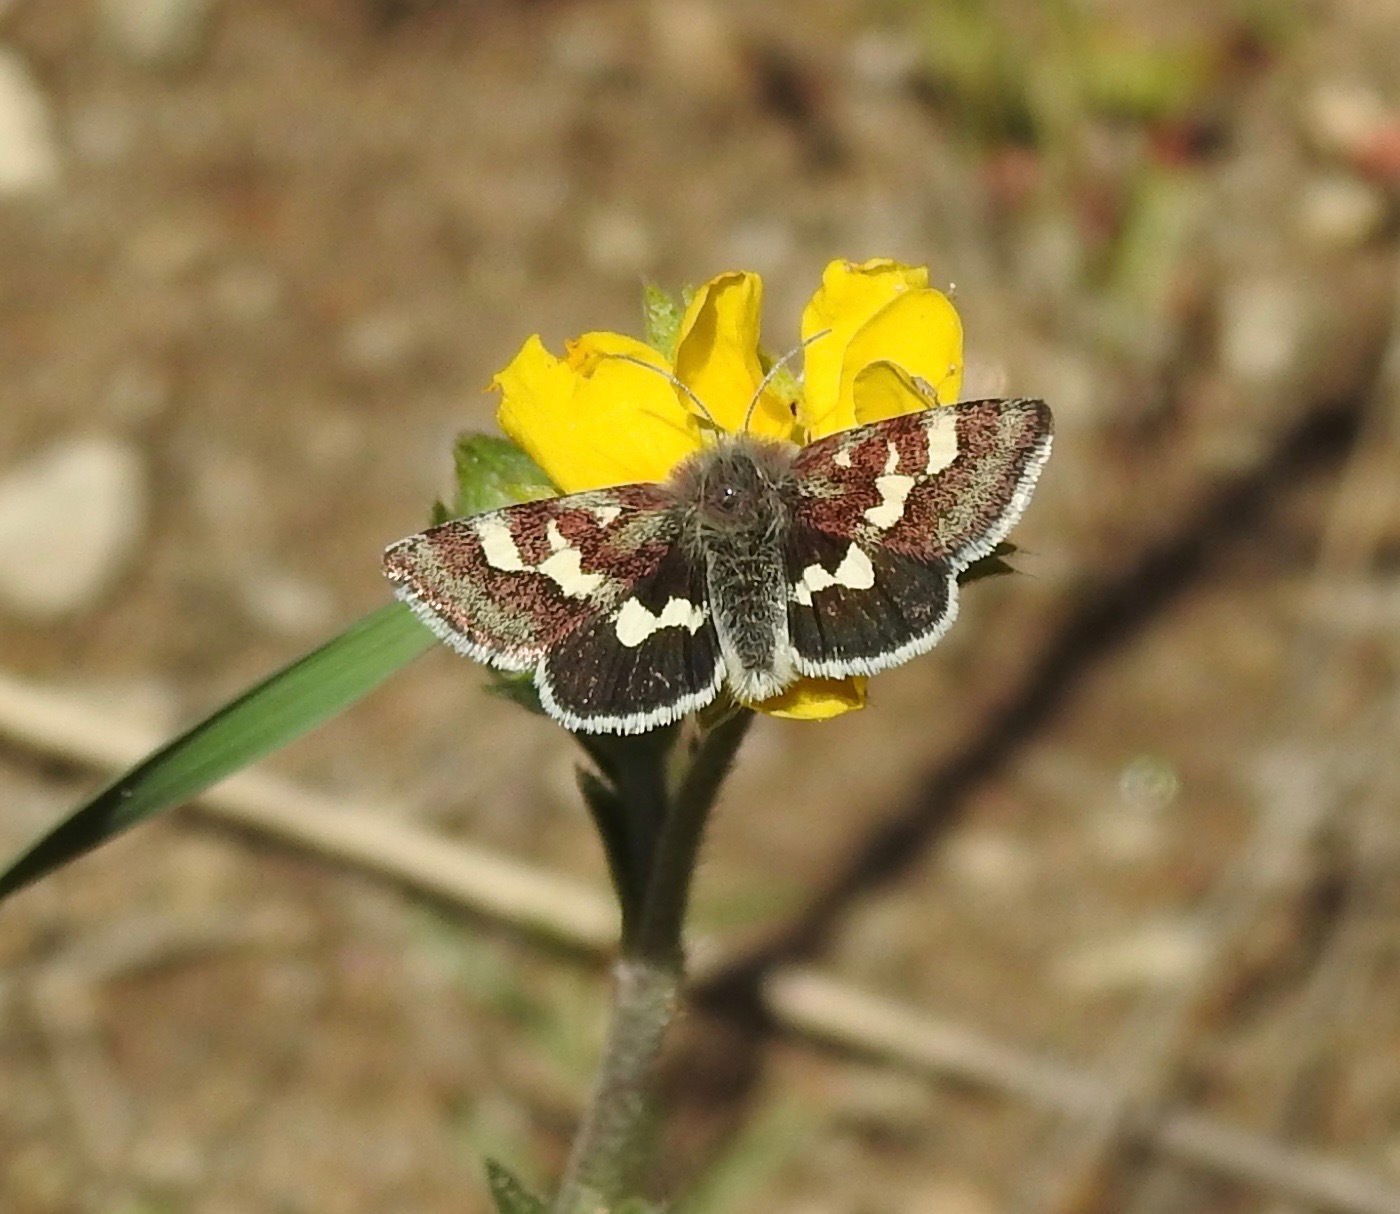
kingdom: Animalia
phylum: Arthropoda
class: Insecta
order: Lepidoptera
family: Noctuidae
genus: Eutricopis
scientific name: Eutricopis nexilis
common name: White-spotted midget moth
